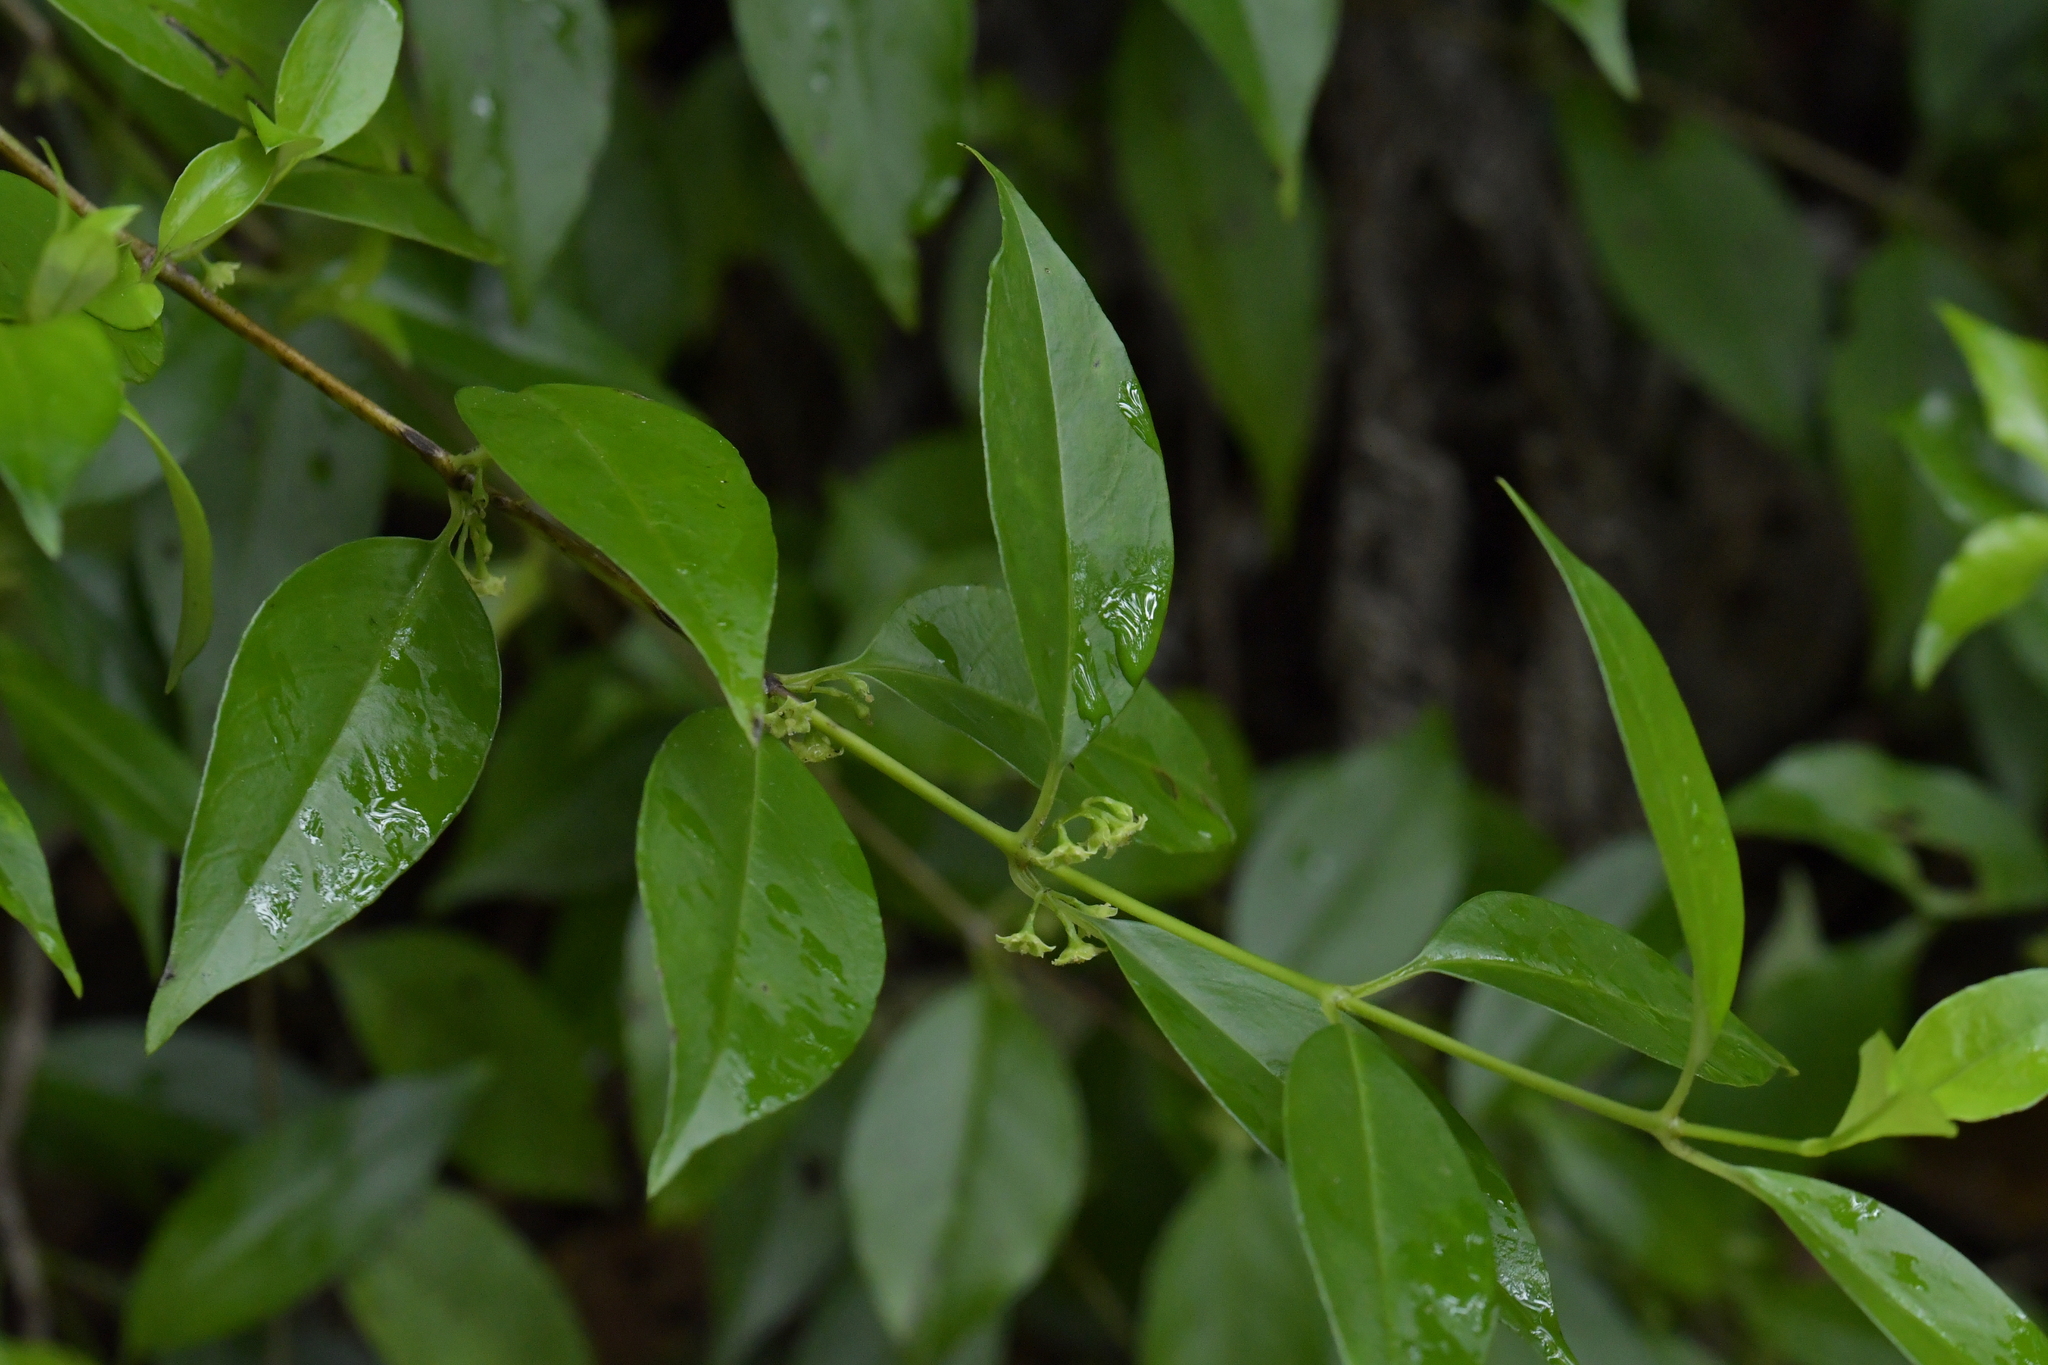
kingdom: Plantae
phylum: Tracheophyta
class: Magnoliopsida
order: Gentianales
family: Loganiaceae
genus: Geniostoma
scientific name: Geniostoma ligustrifolium
